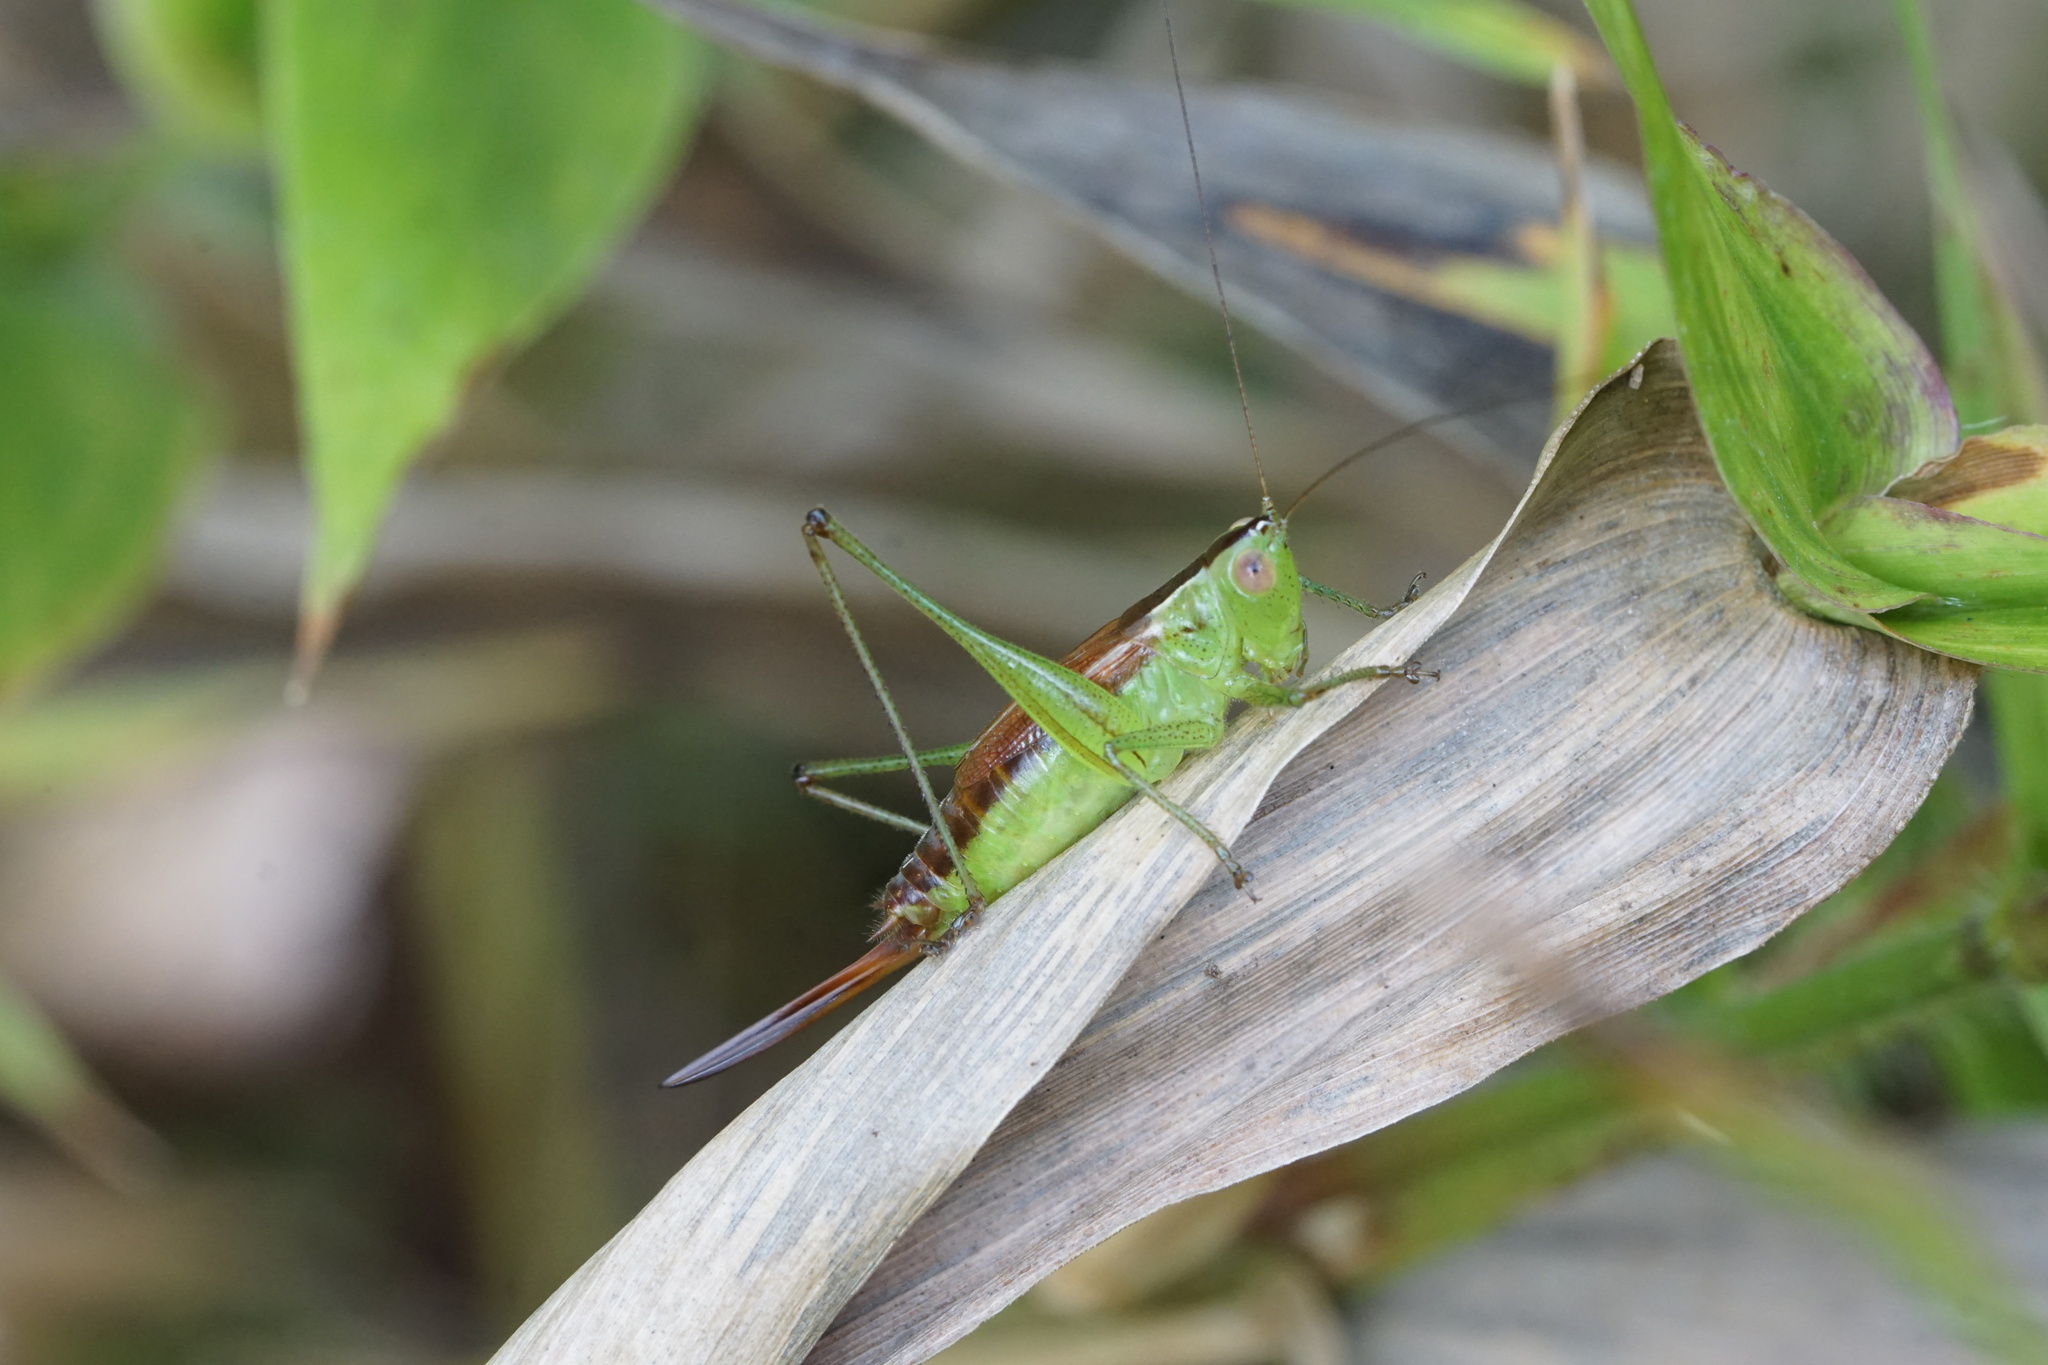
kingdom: Animalia
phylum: Arthropoda
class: Insecta
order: Orthoptera
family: Tettigoniidae
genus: Conocephalus
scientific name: Conocephalus brevipennis
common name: Short-winged meadow katydid
